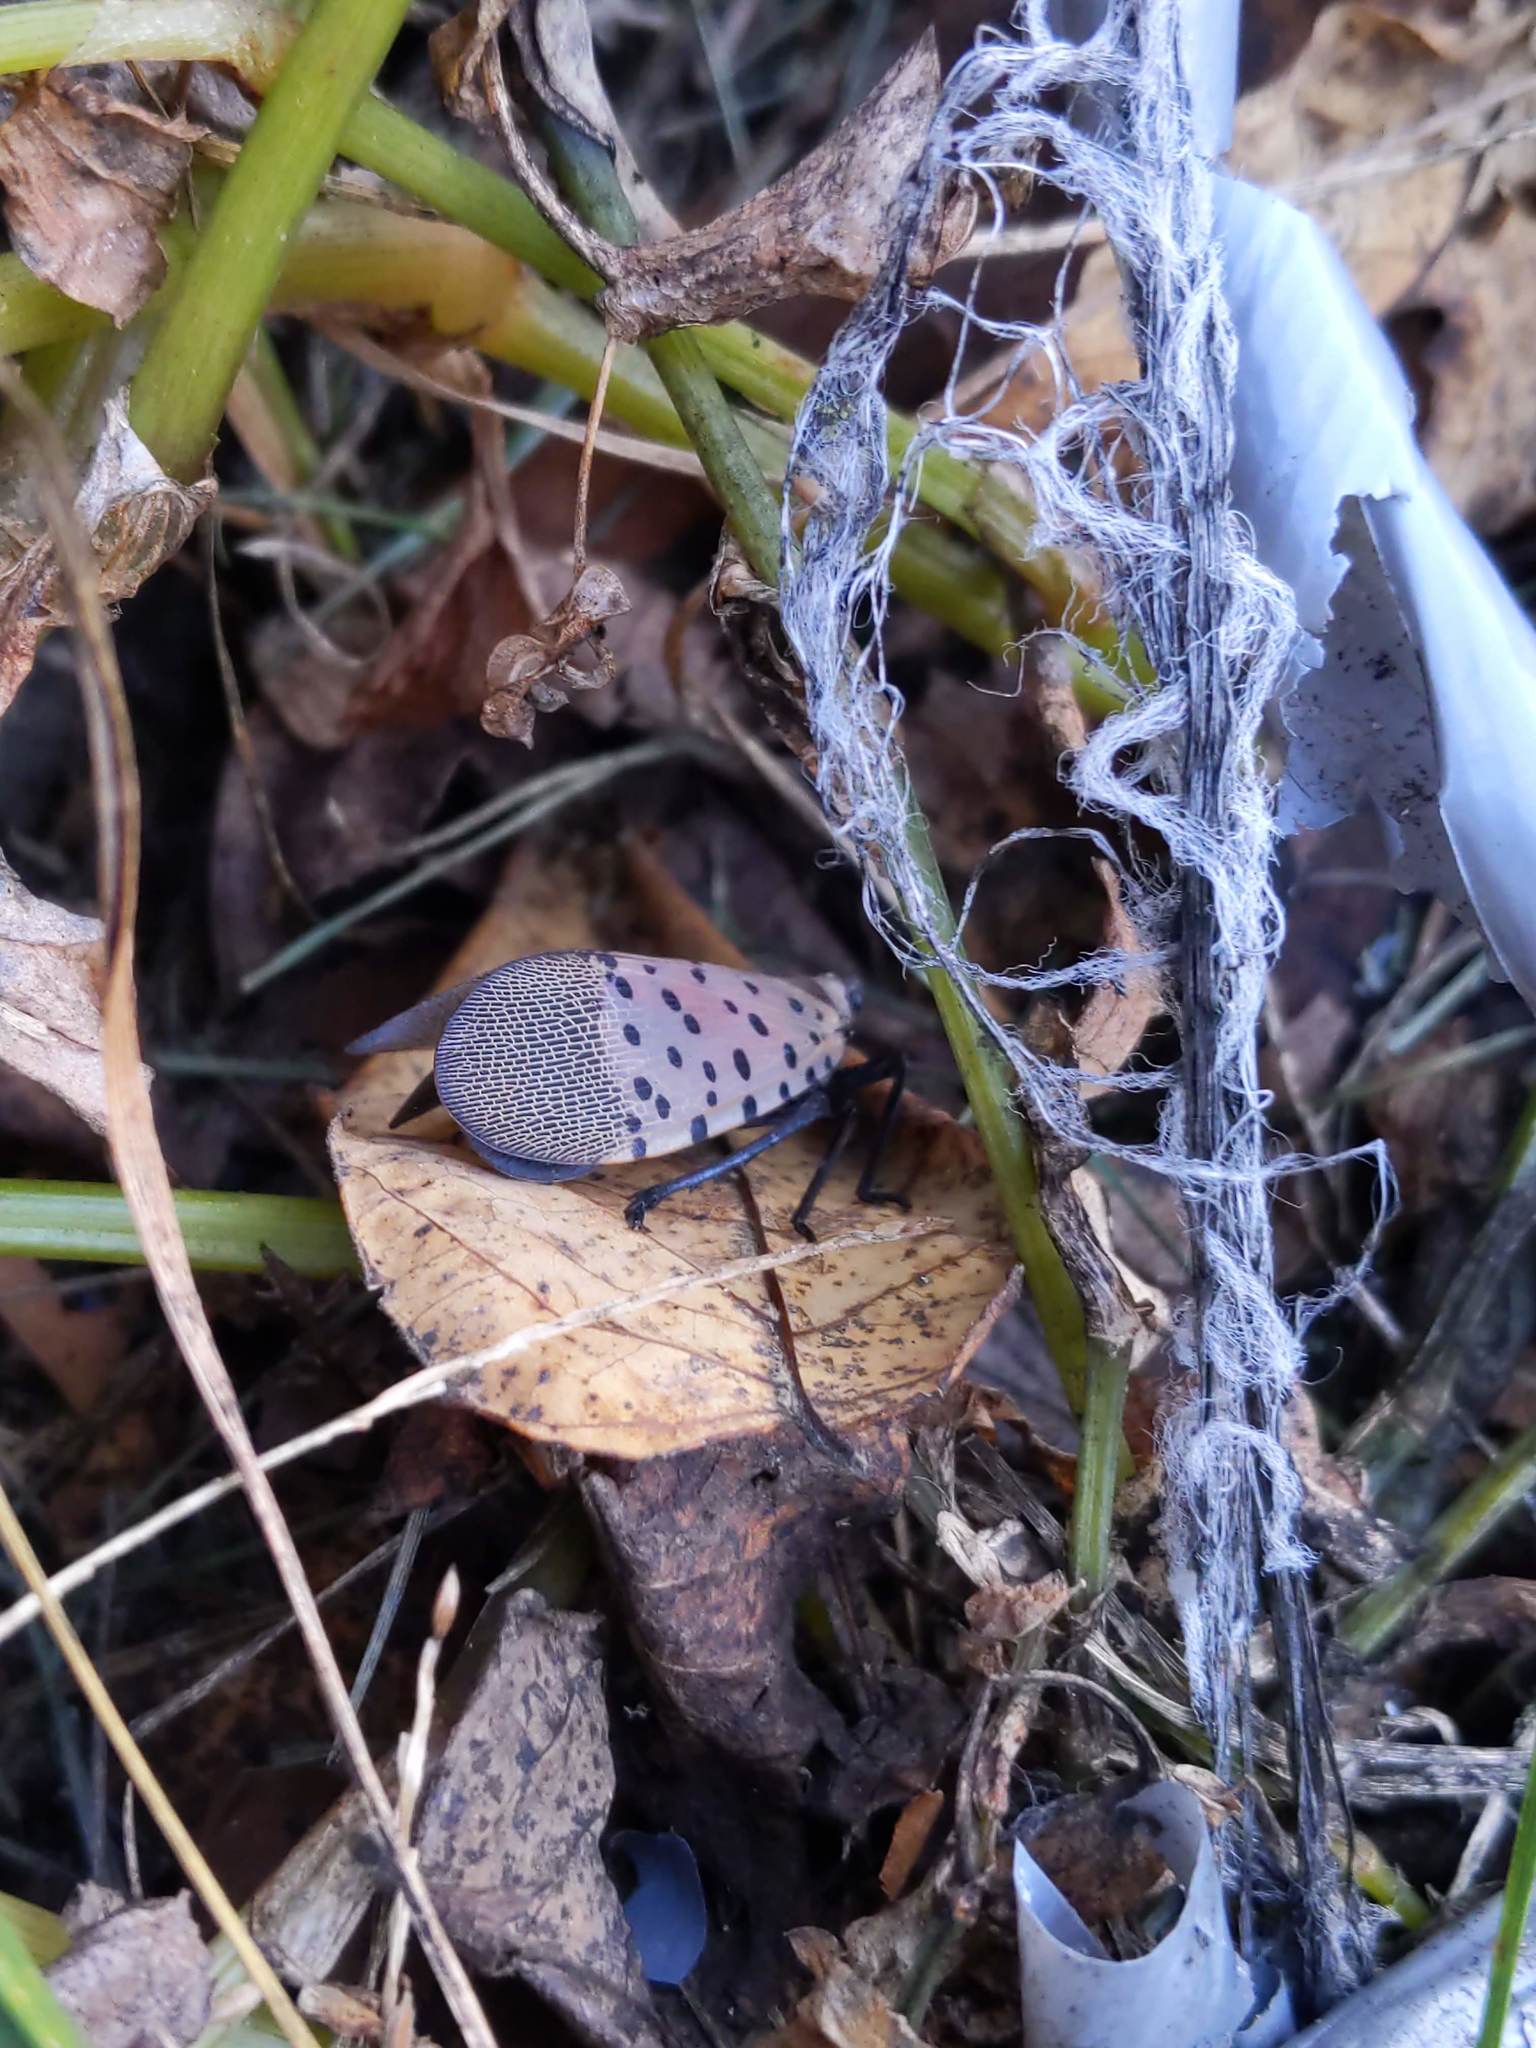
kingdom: Animalia
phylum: Arthropoda
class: Insecta
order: Hemiptera
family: Fulgoridae
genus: Lycorma
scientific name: Lycorma delicatula
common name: Spotted lanternfly
